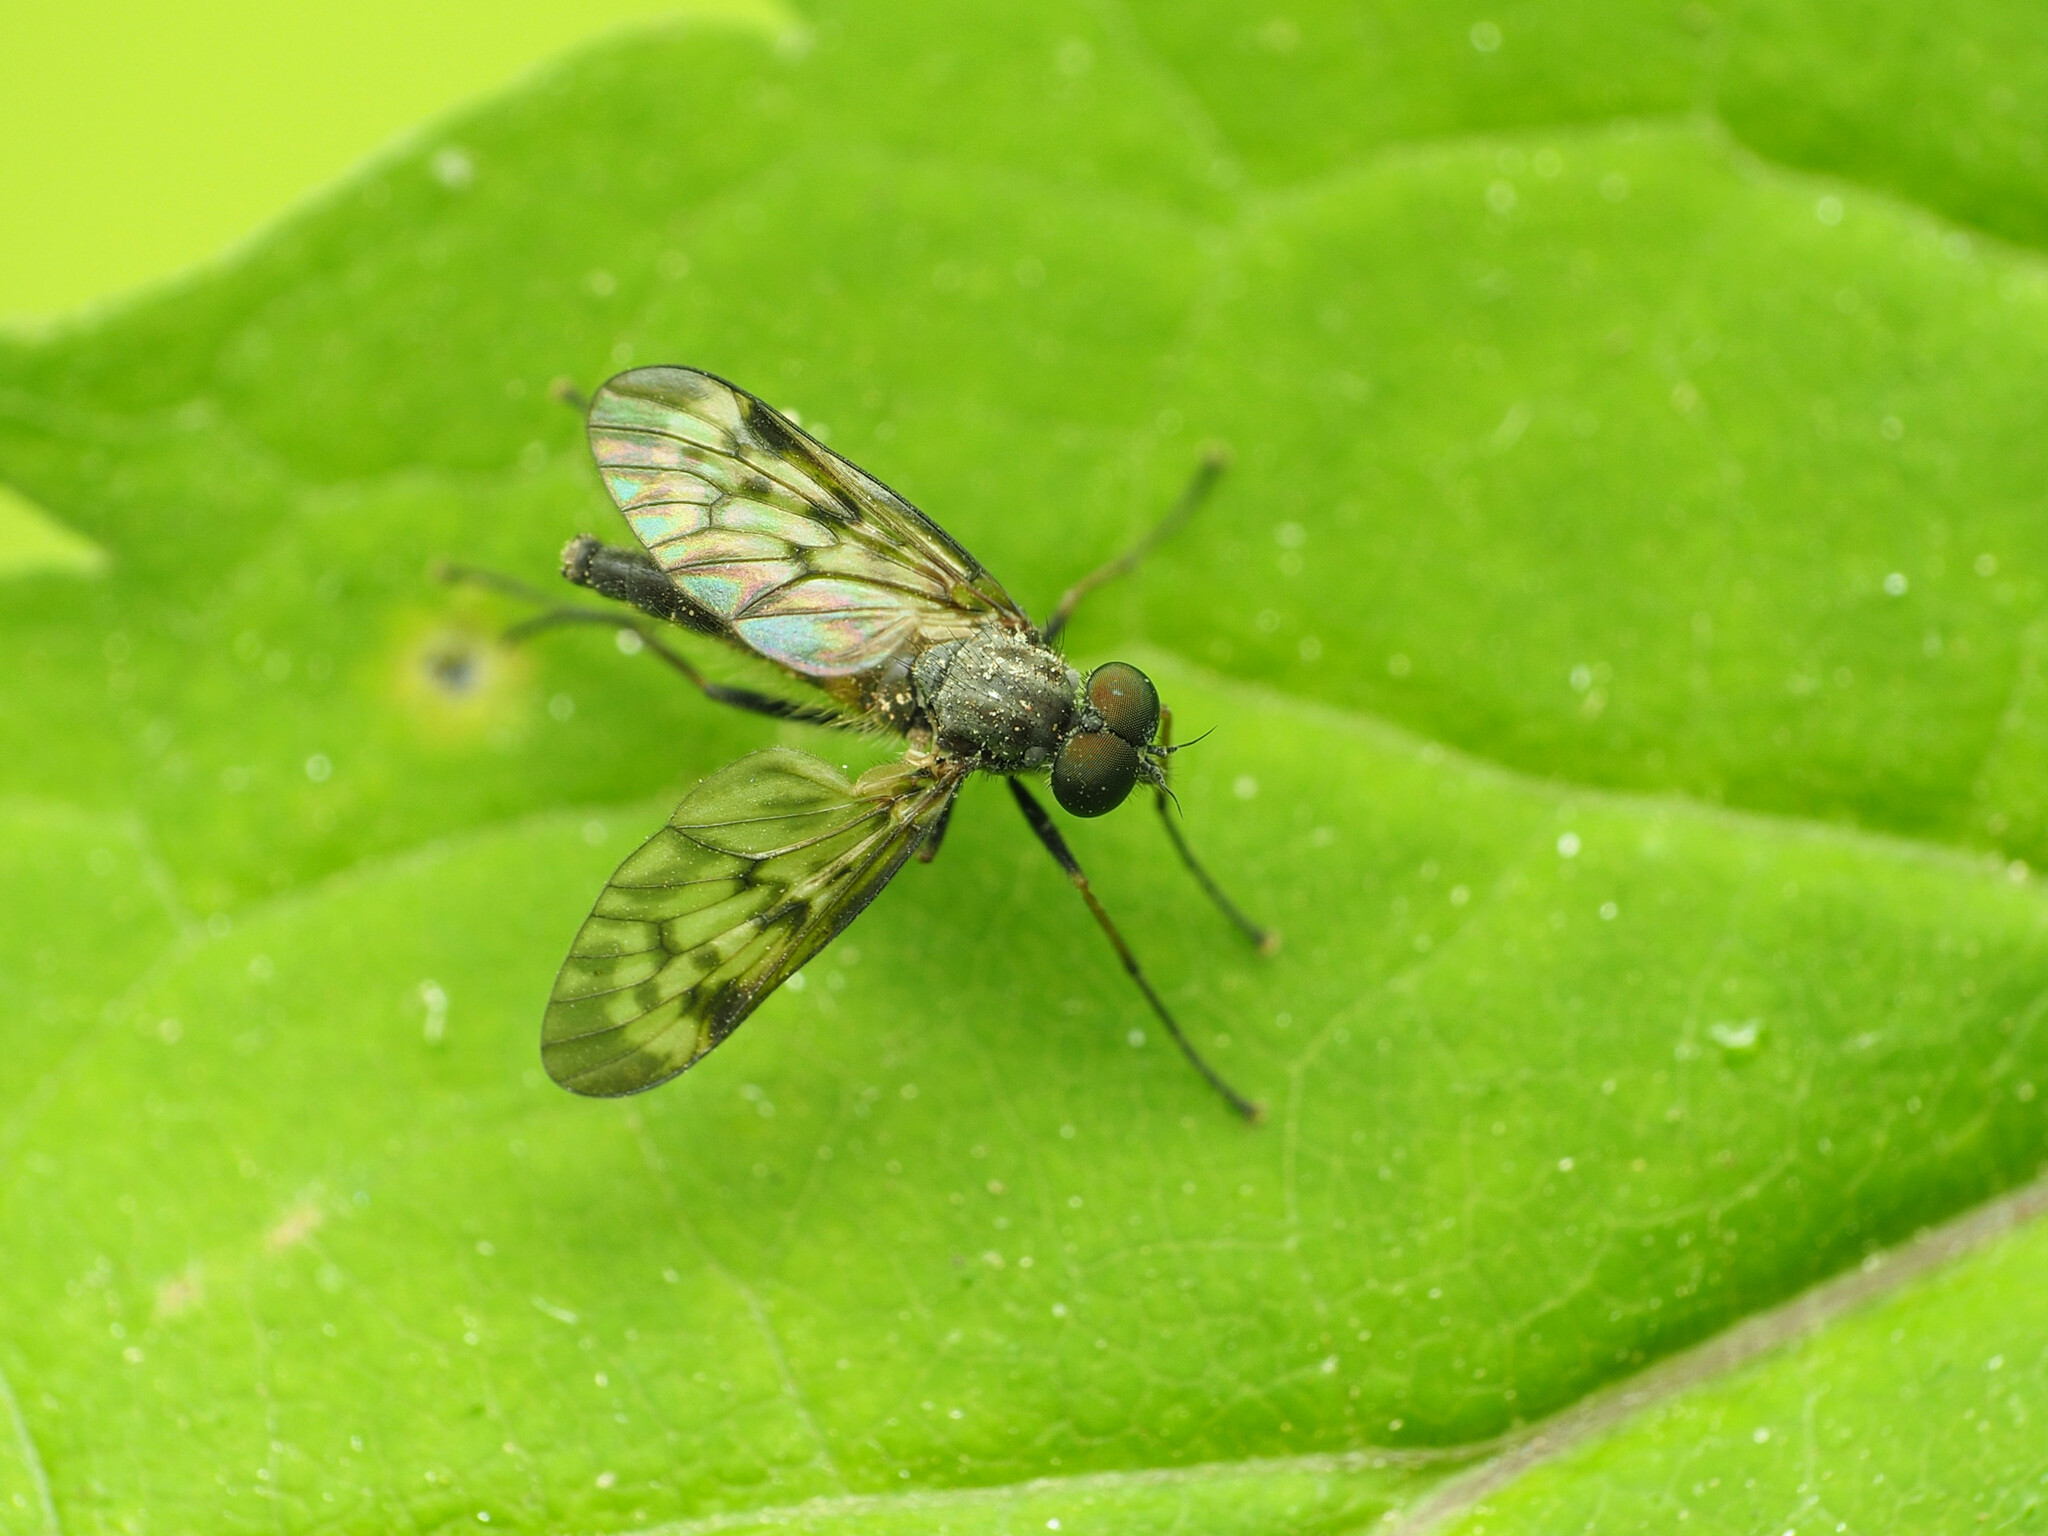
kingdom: Animalia
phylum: Arthropoda
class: Insecta
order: Diptera
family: Rhagionidae
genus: Rhagio
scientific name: Rhagio punctipennis
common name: Lesser variegated snipe fly
